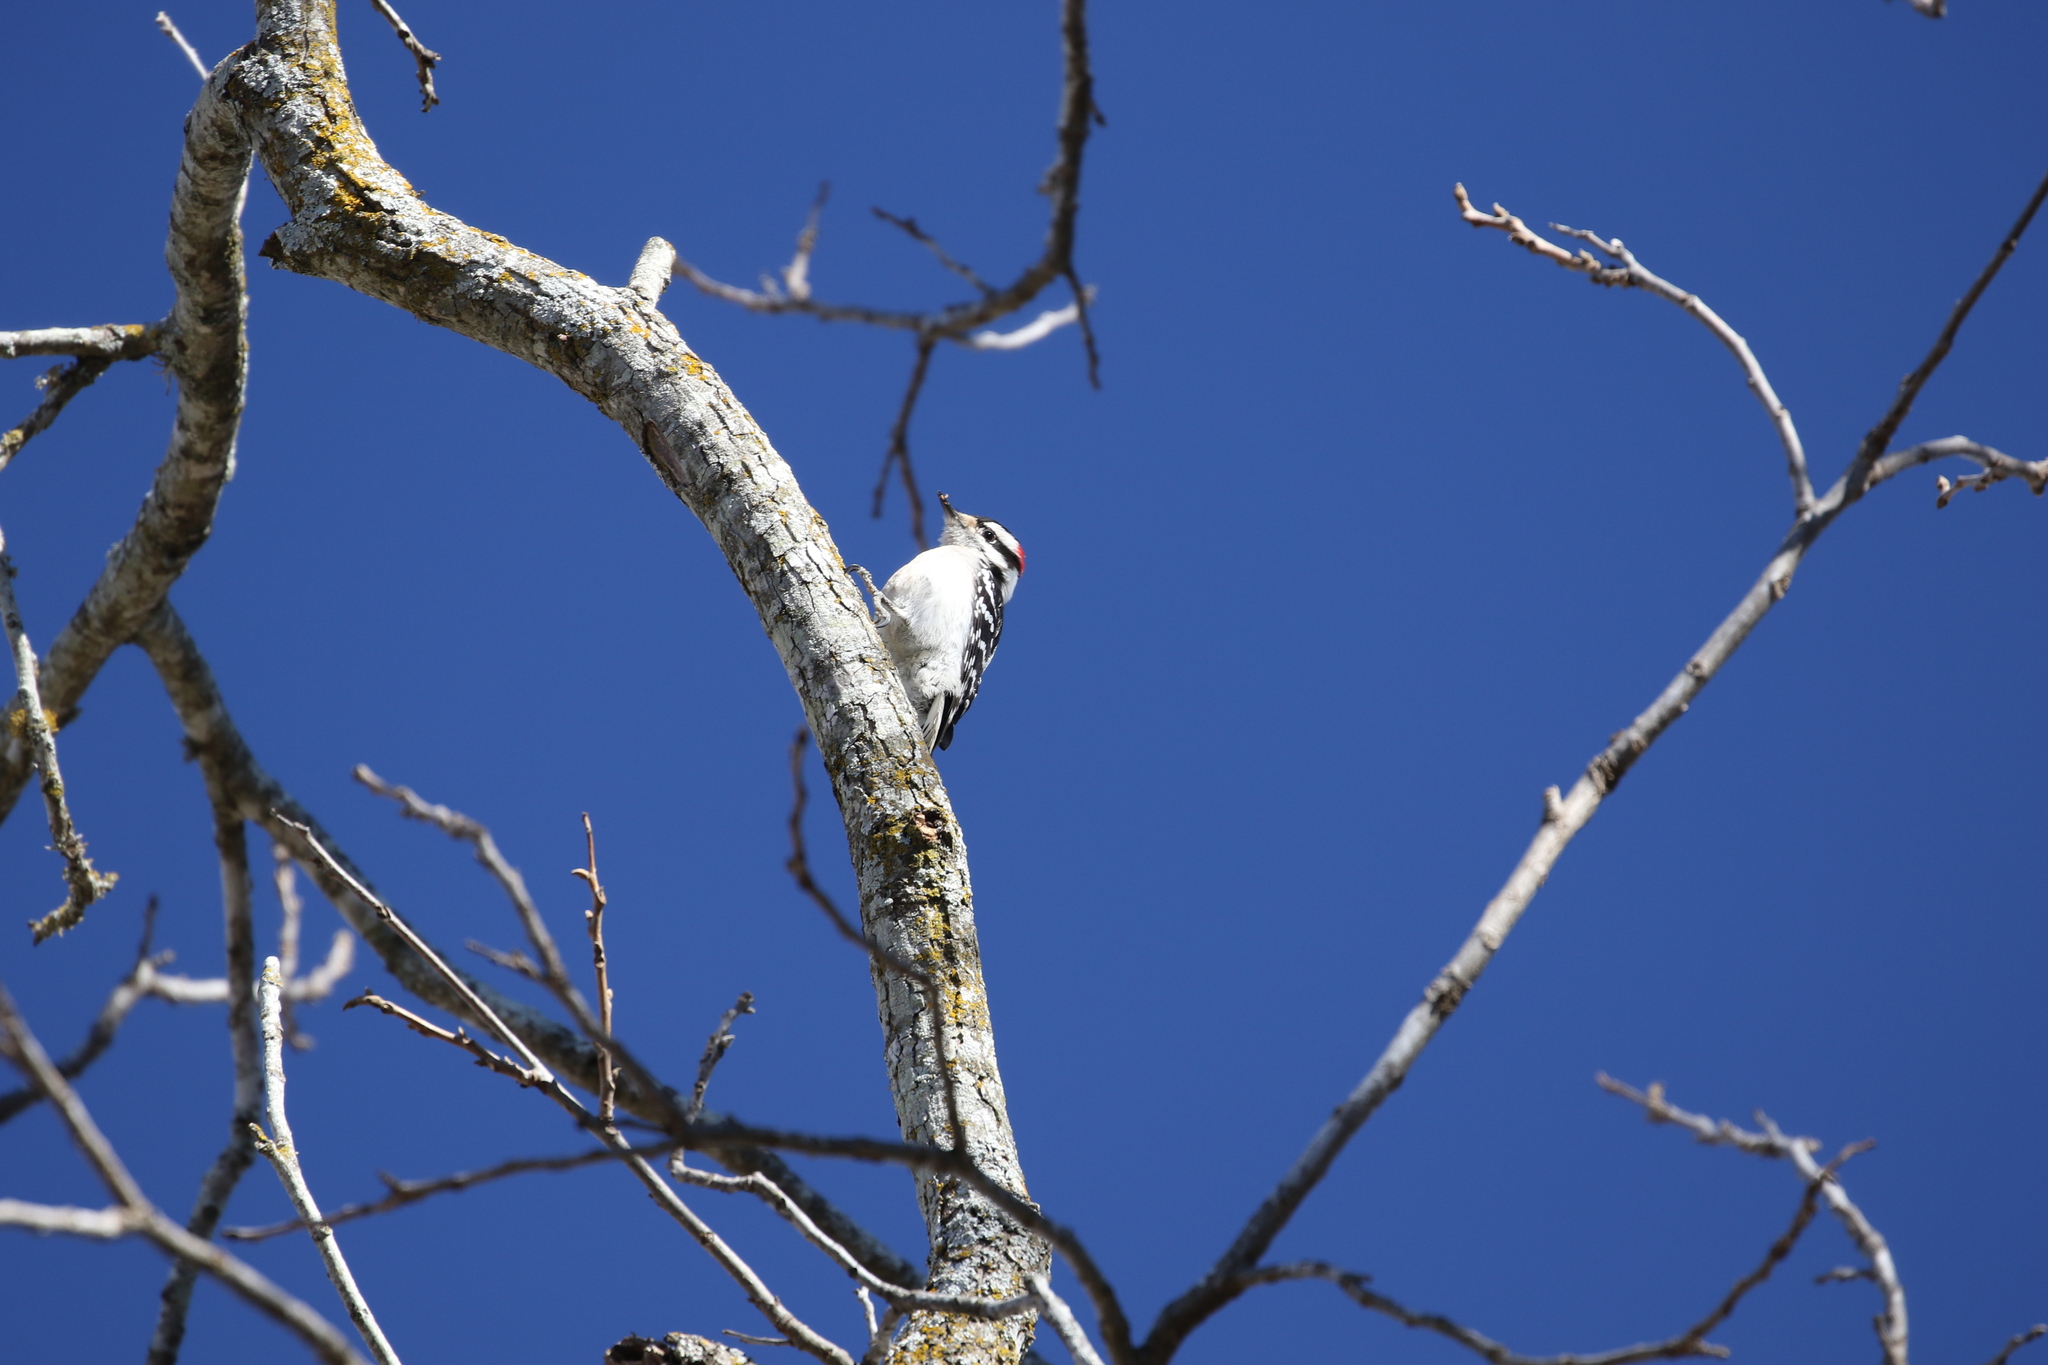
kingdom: Animalia
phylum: Chordata
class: Aves
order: Piciformes
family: Picidae
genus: Dryobates
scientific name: Dryobates pubescens
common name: Downy woodpecker
